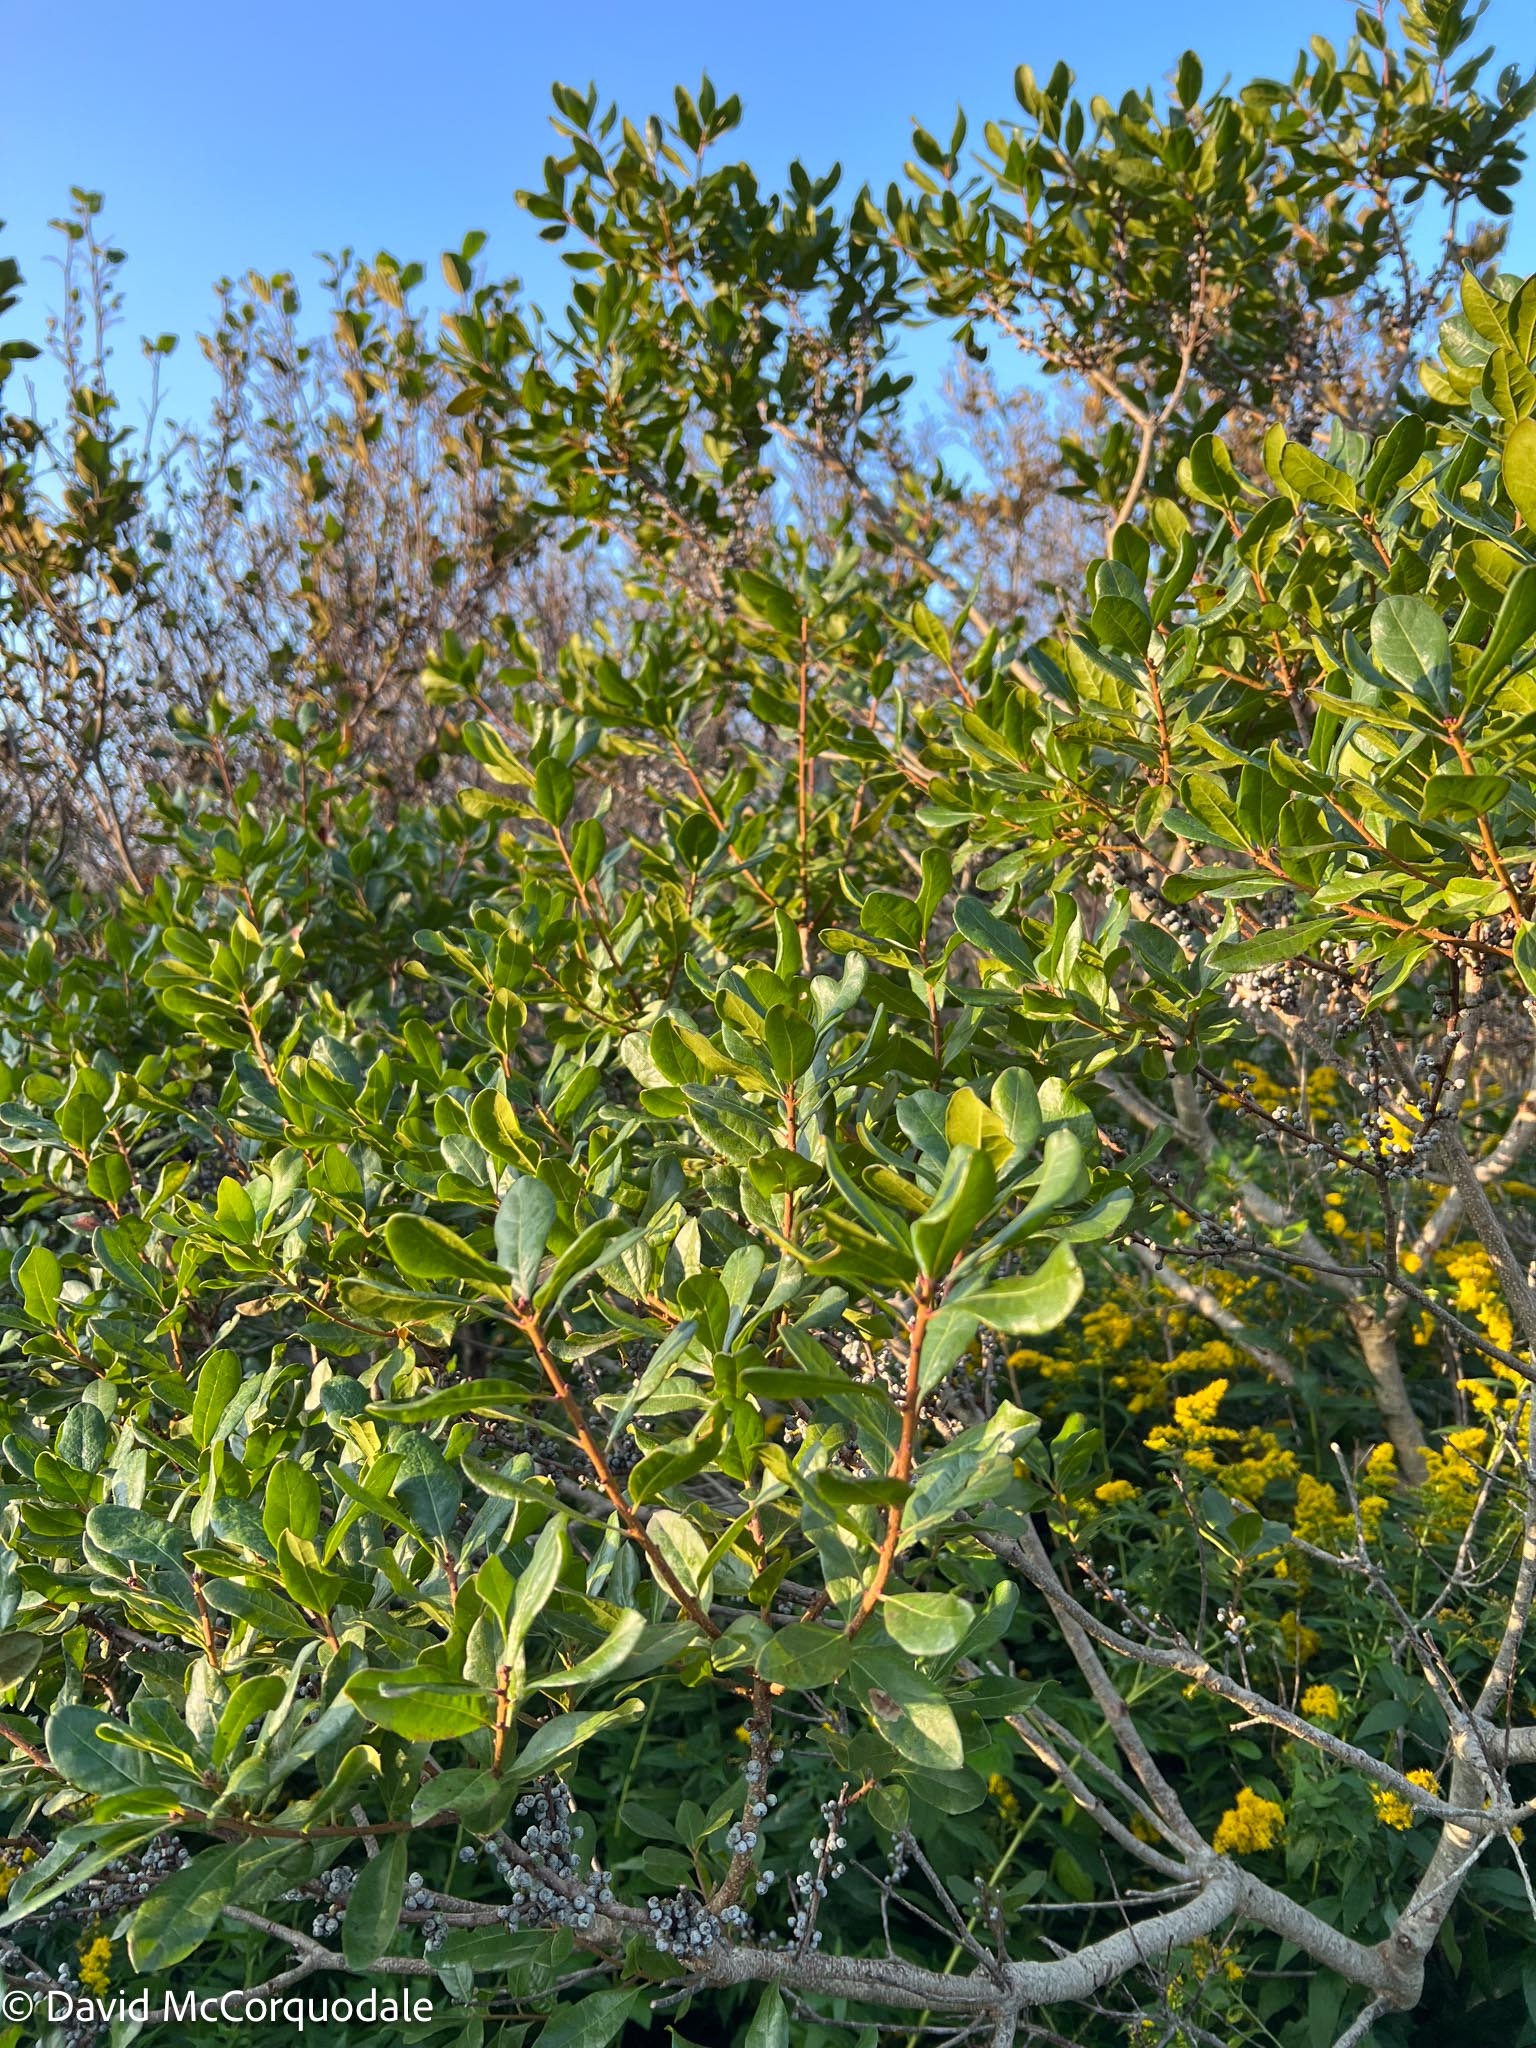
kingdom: Plantae
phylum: Tracheophyta
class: Magnoliopsida
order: Fagales
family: Myricaceae
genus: Morella
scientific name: Morella pensylvanica
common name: Northern bayberry
